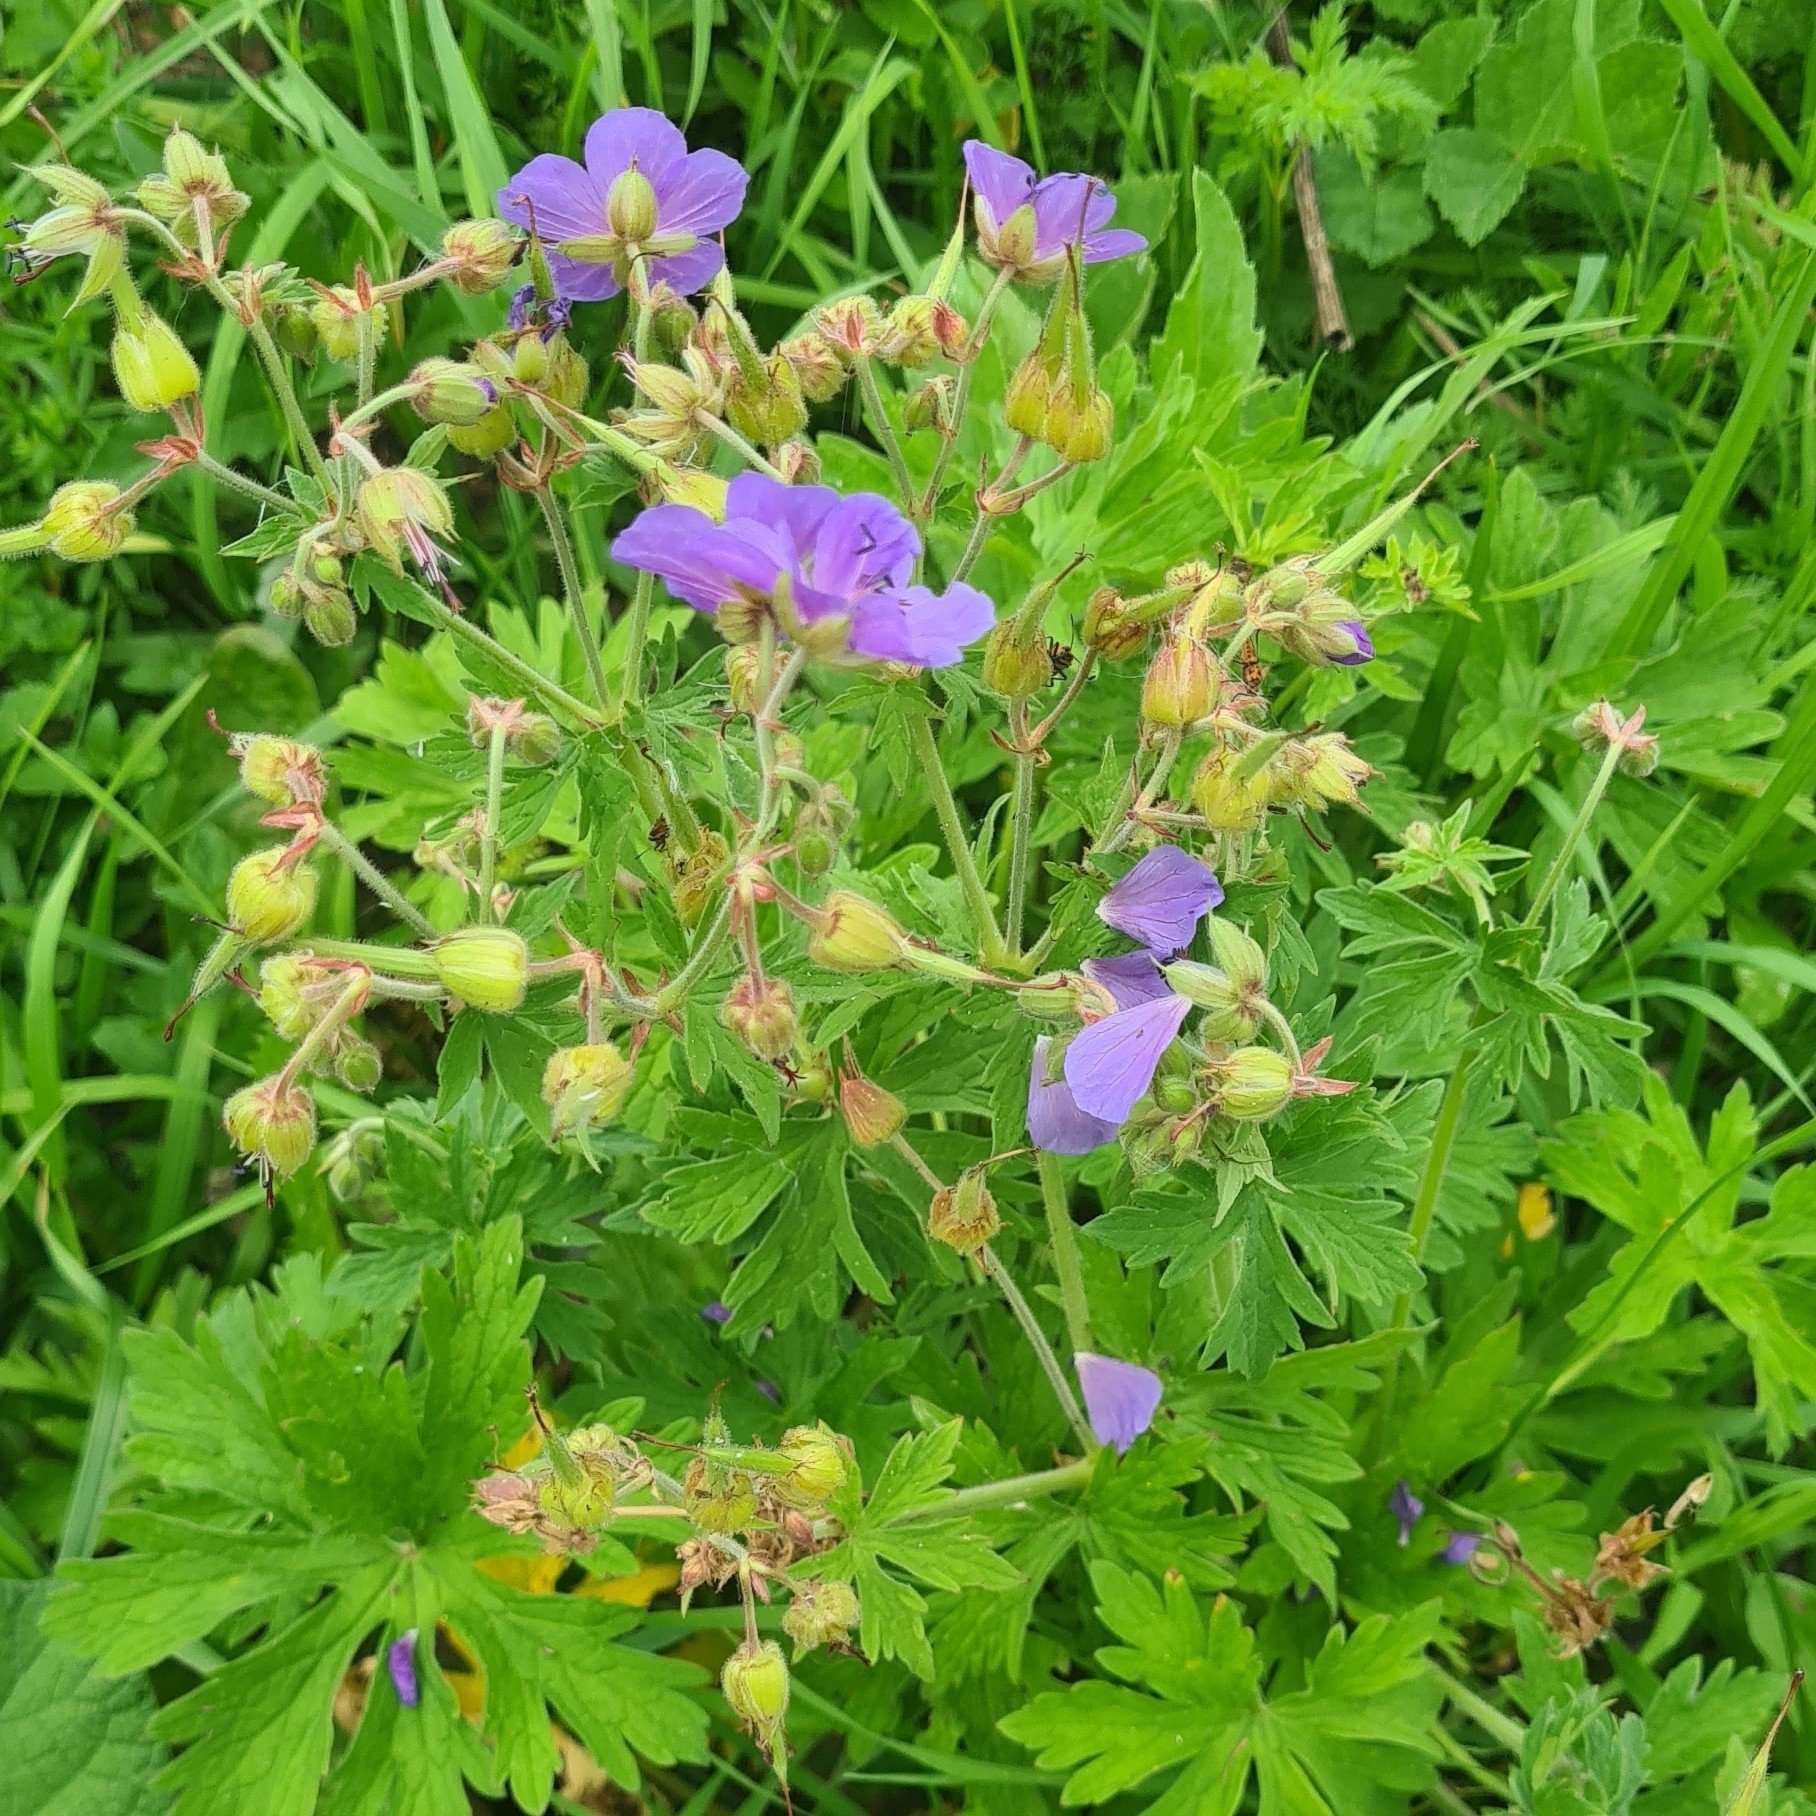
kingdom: Plantae
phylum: Tracheophyta
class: Magnoliopsida
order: Geraniales
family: Geraniaceae
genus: Geranium
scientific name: Geranium pratense
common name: Meadow crane's-bill
